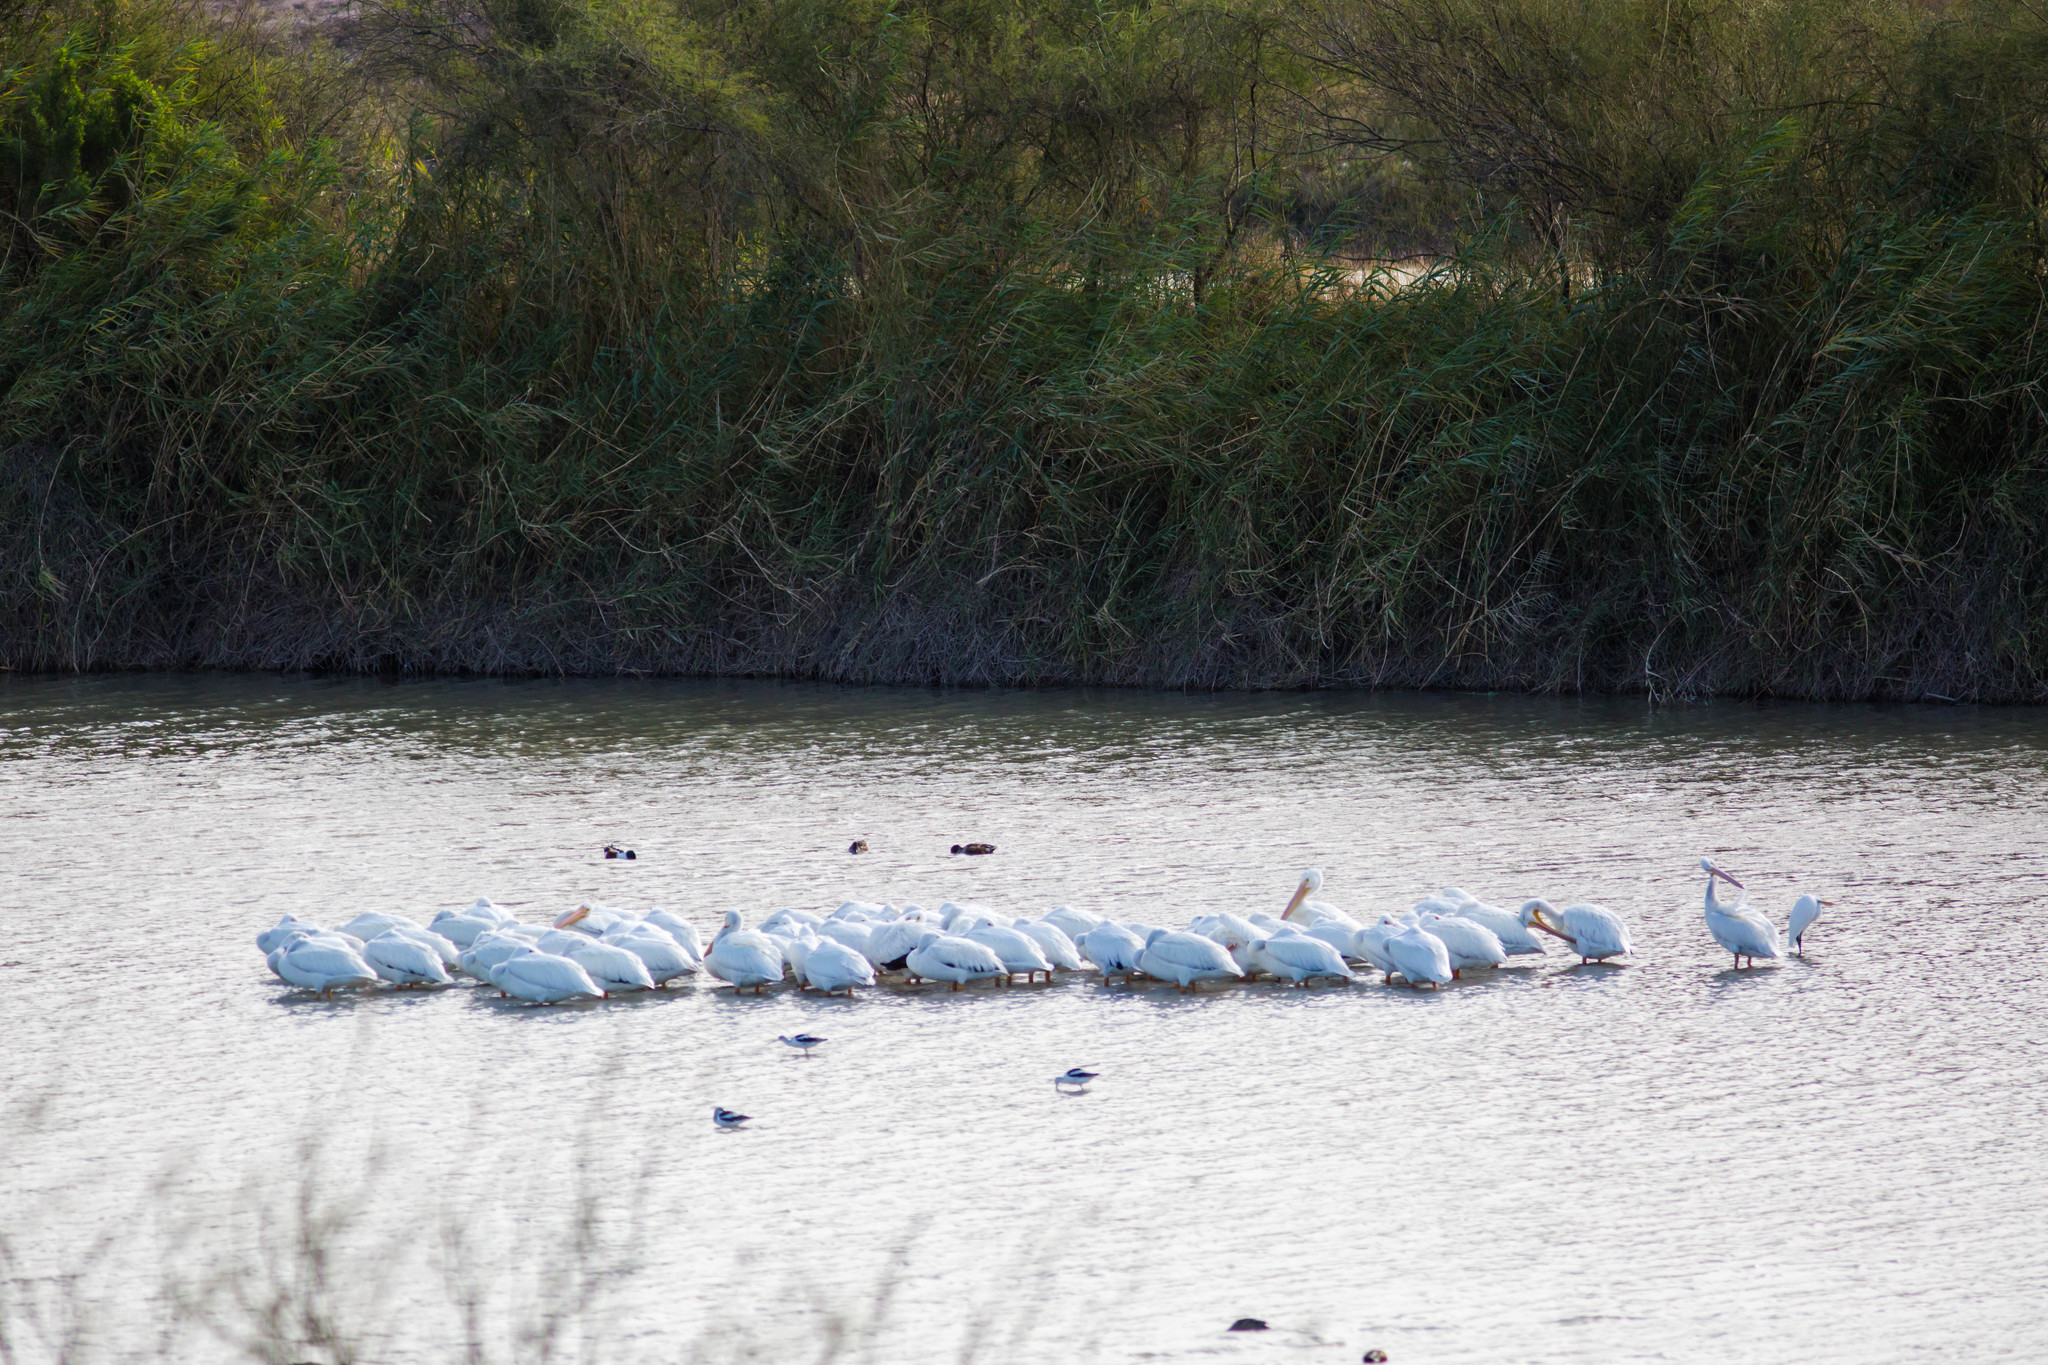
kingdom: Animalia
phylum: Chordata
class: Aves
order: Pelecaniformes
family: Pelecanidae
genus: Pelecanus
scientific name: Pelecanus erythrorhynchos
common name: American white pelican
